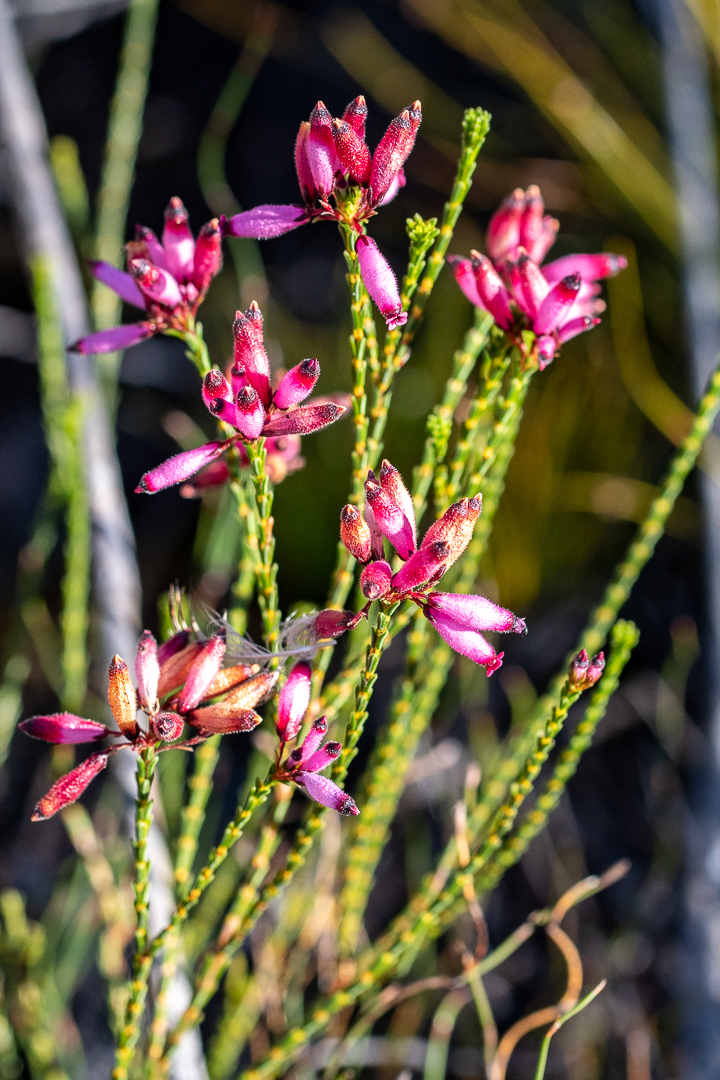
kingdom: Plantae
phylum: Tracheophyta
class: Magnoliopsida
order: Ericales
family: Ericaceae
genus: Erica
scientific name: Erica cristata
